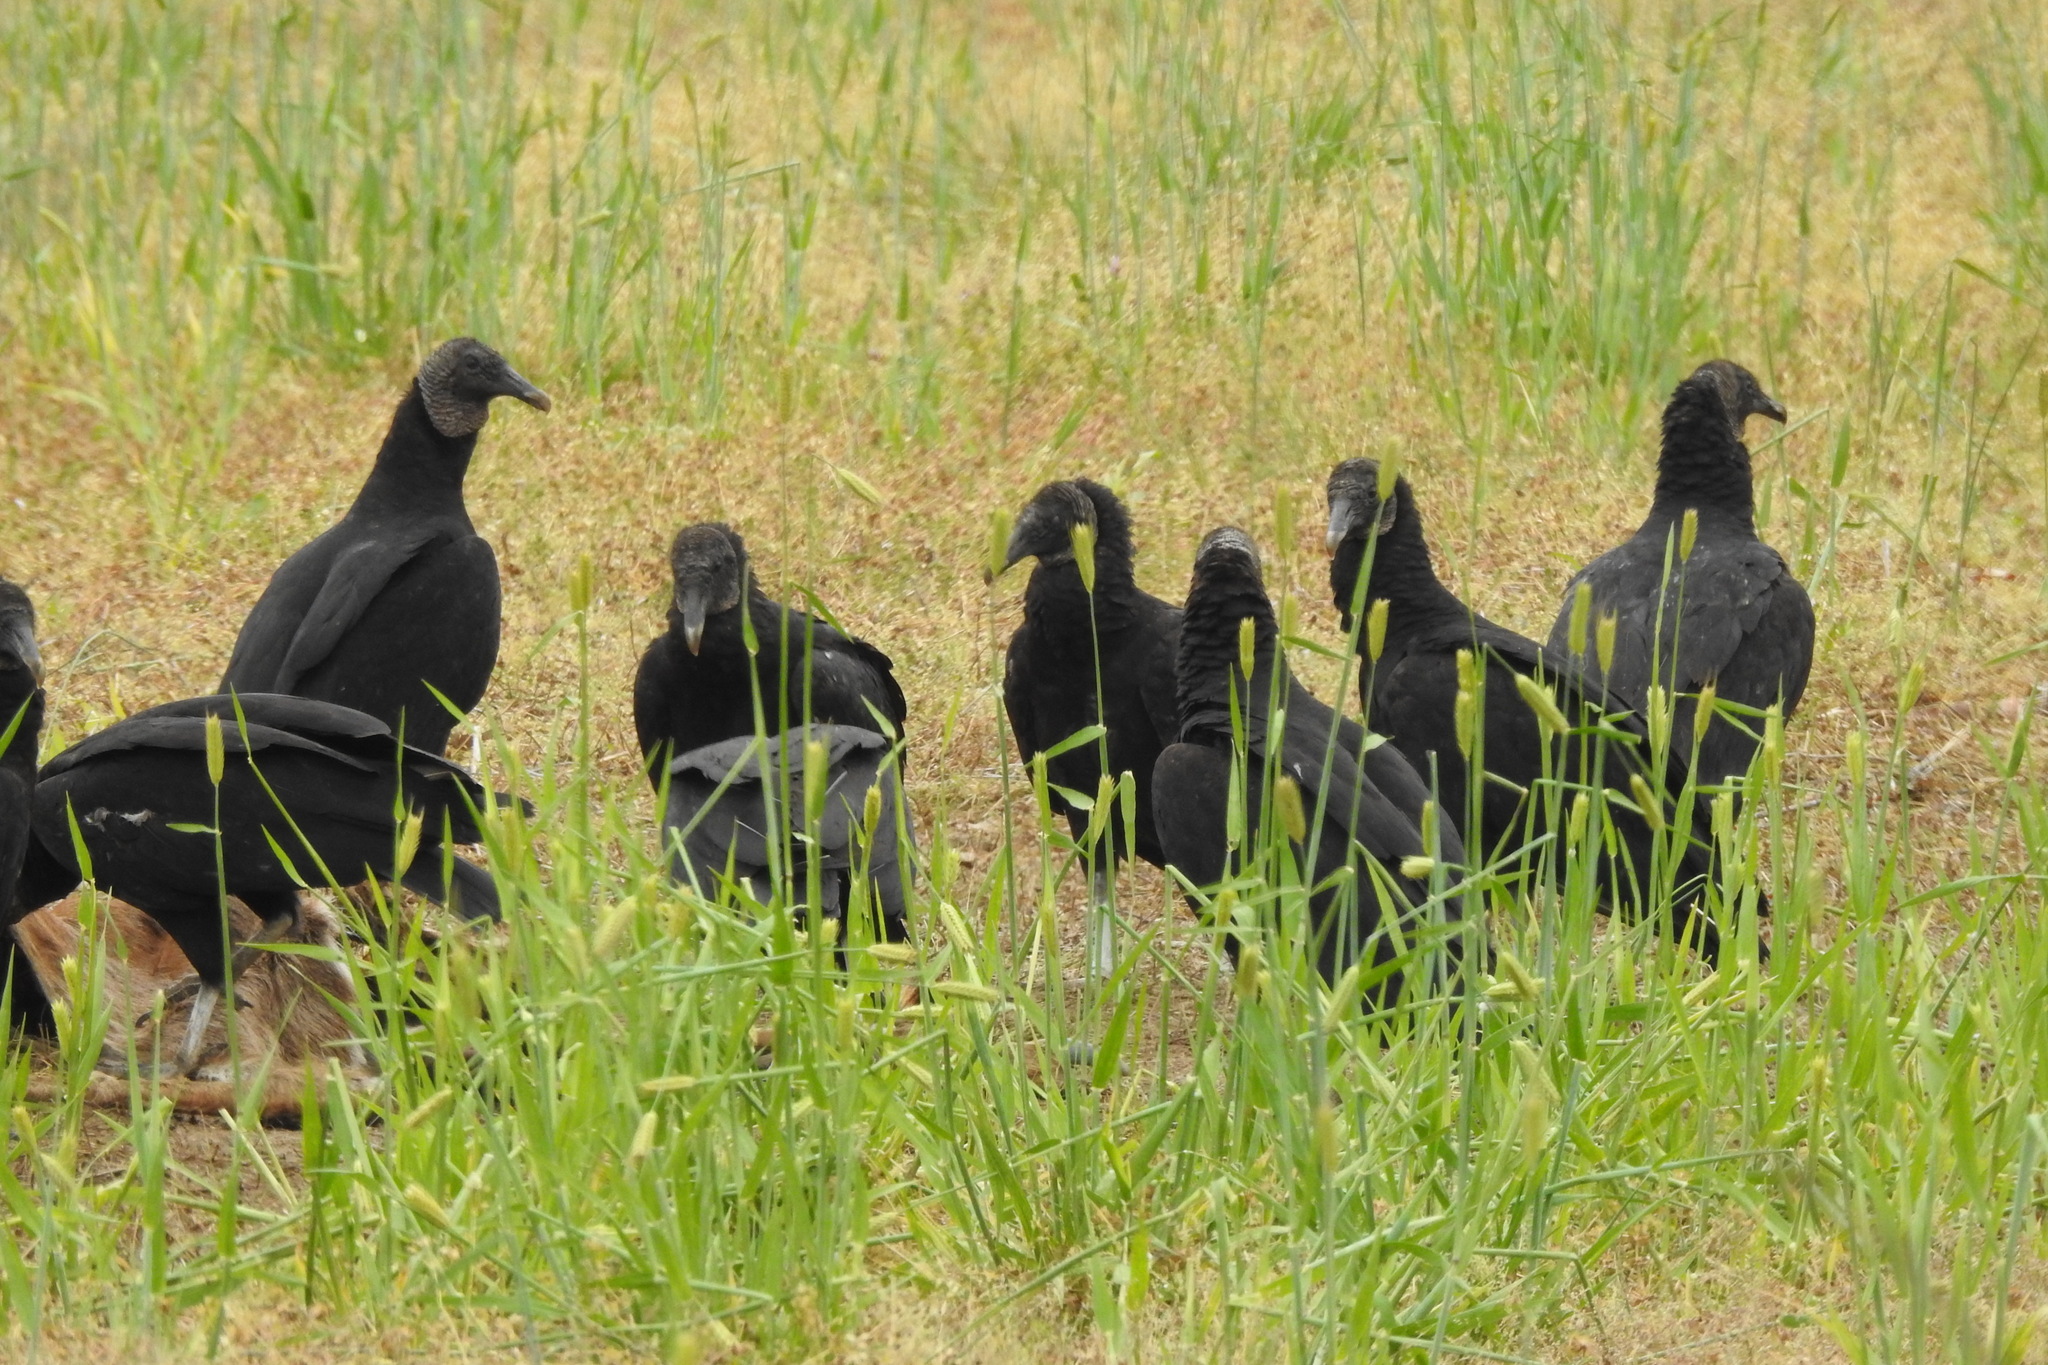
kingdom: Animalia
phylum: Chordata
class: Aves
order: Accipitriformes
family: Cathartidae
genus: Coragyps
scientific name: Coragyps atratus
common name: Black vulture
